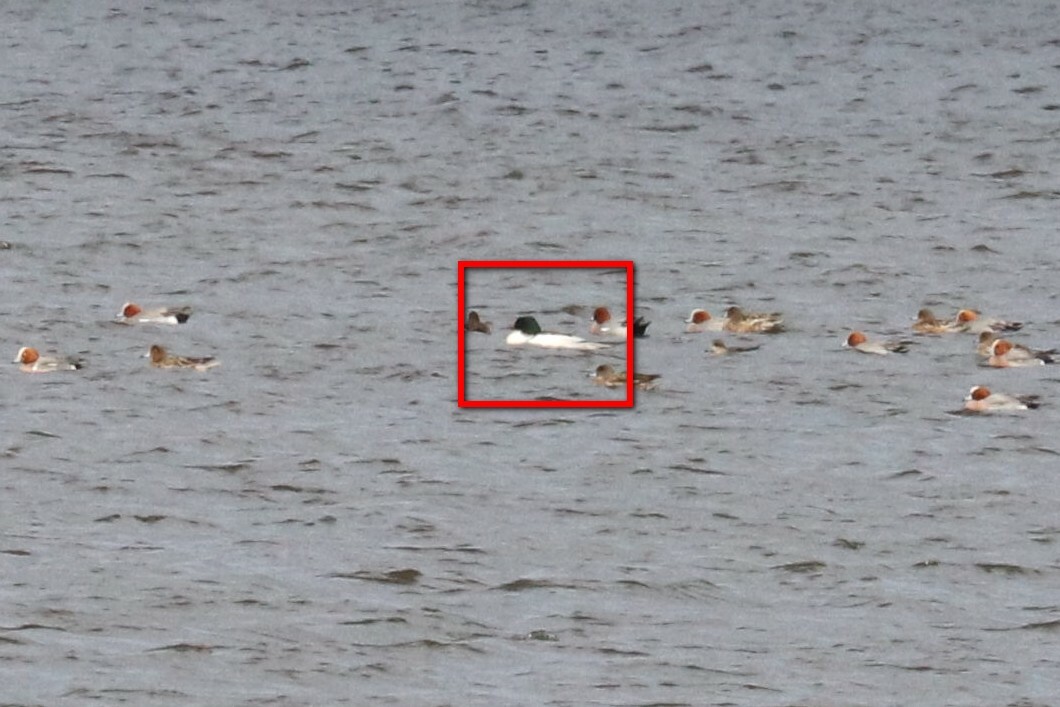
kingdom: Animalia
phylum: Chordata
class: Aves
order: Anseriformes
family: Anatidae
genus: Mergus
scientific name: Mergus merganser
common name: Common merganser
